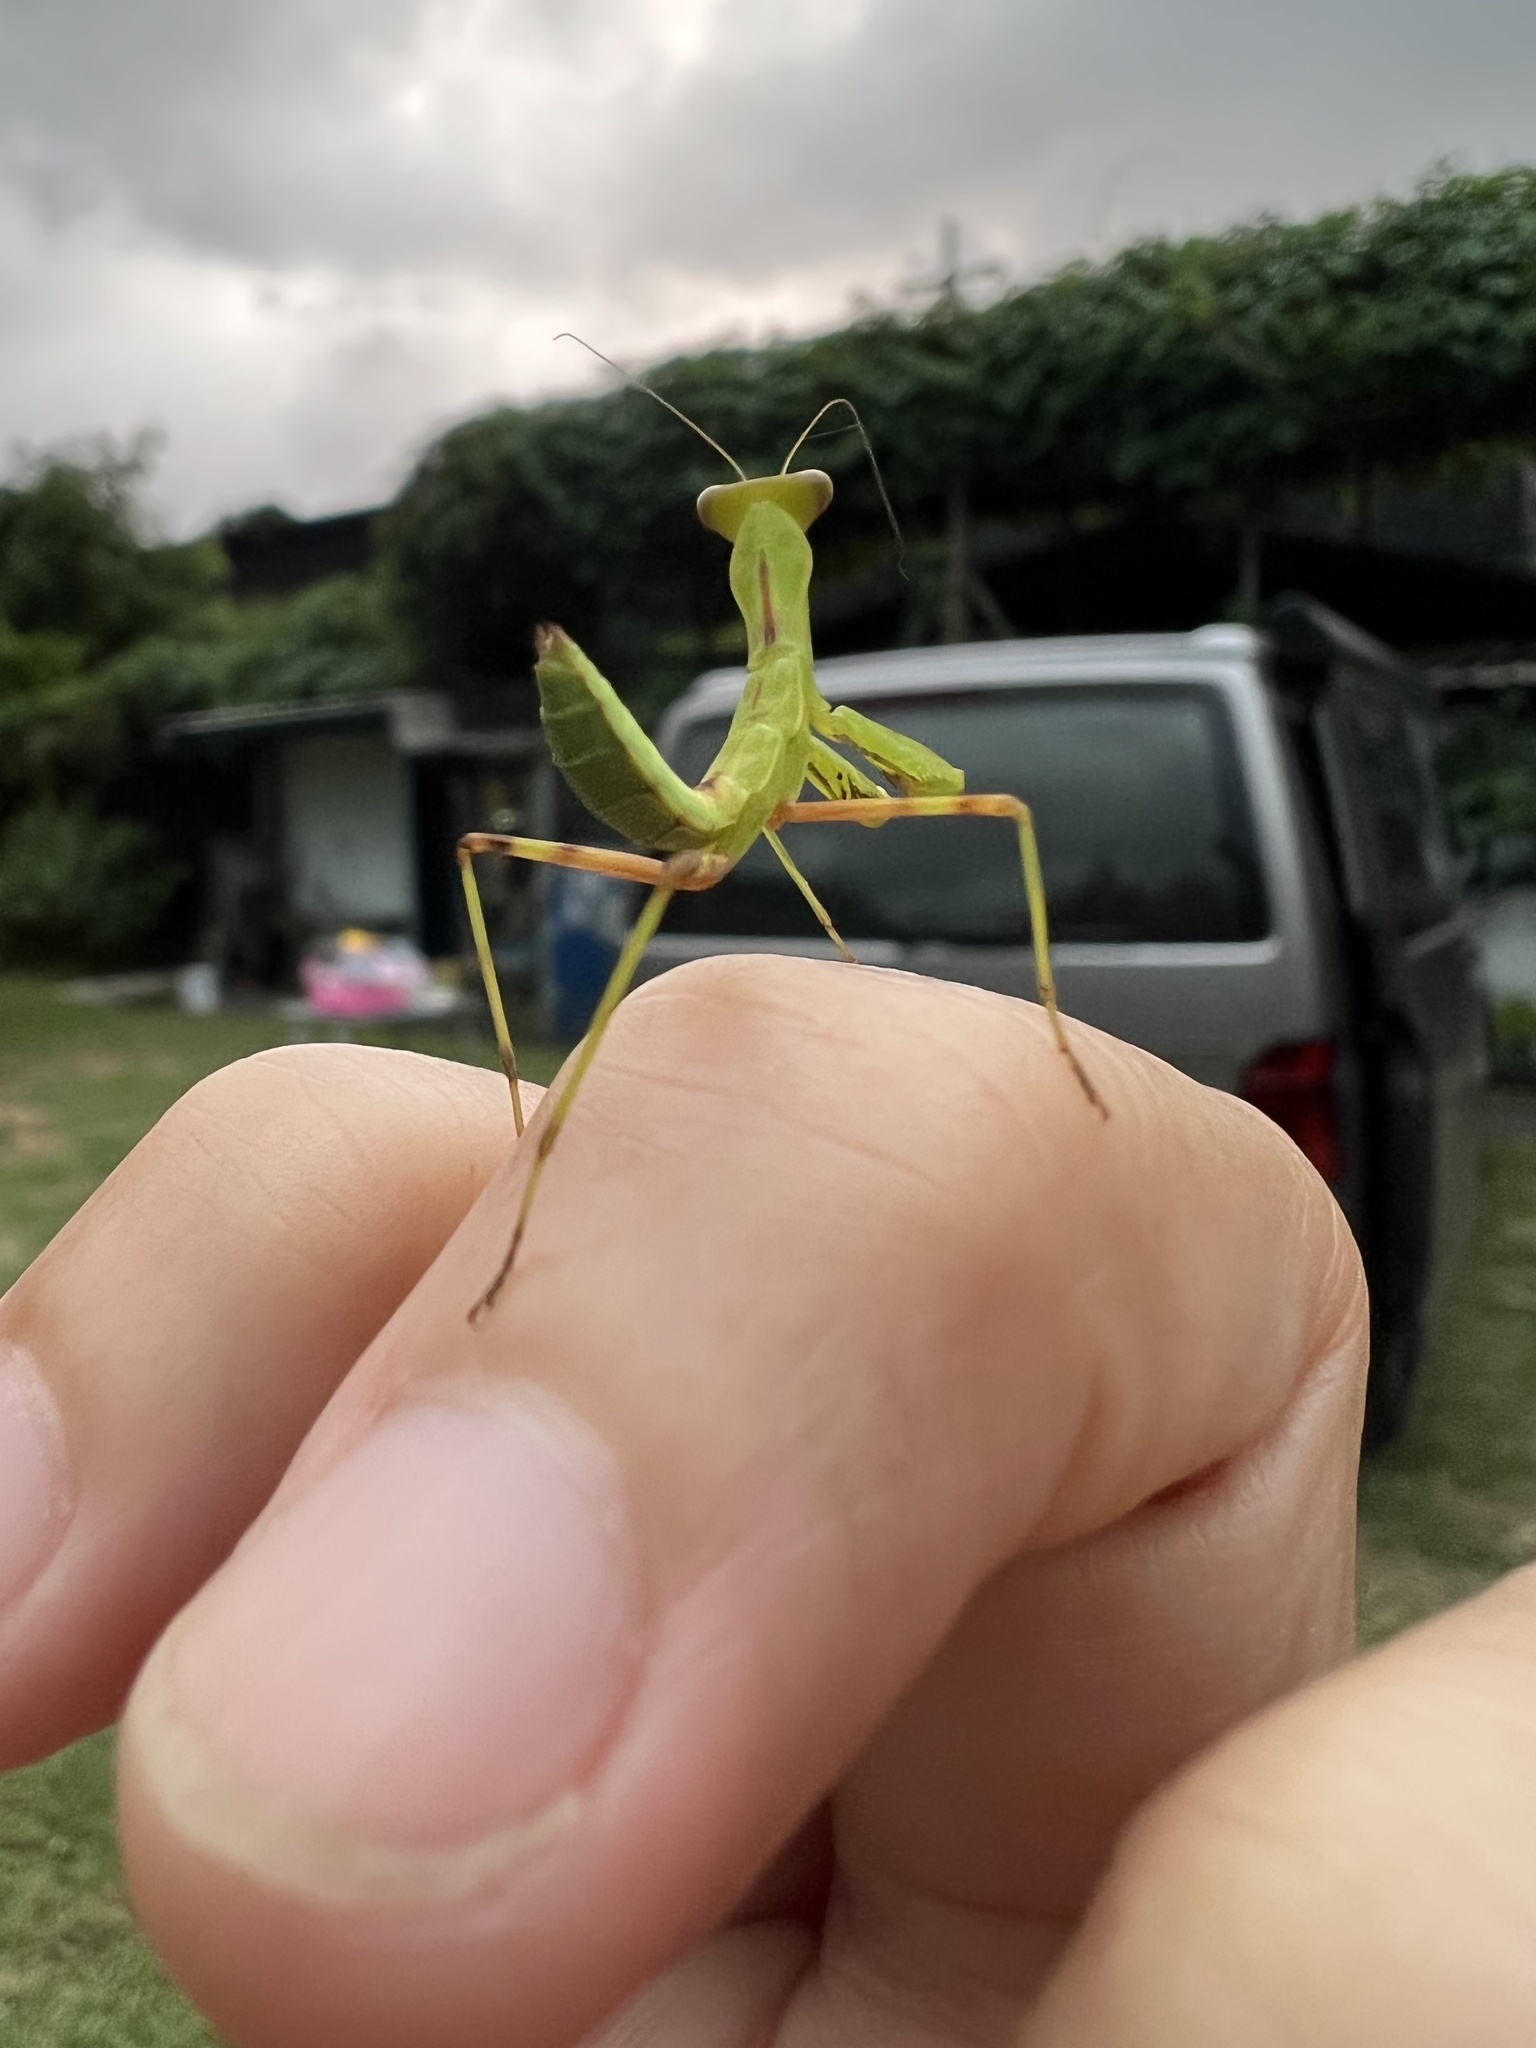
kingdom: Animalia
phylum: Arthropoda
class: Insecta
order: Mantodea
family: Mantidae
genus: Hierodula
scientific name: Hierodula patellifera
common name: Asian mantis
